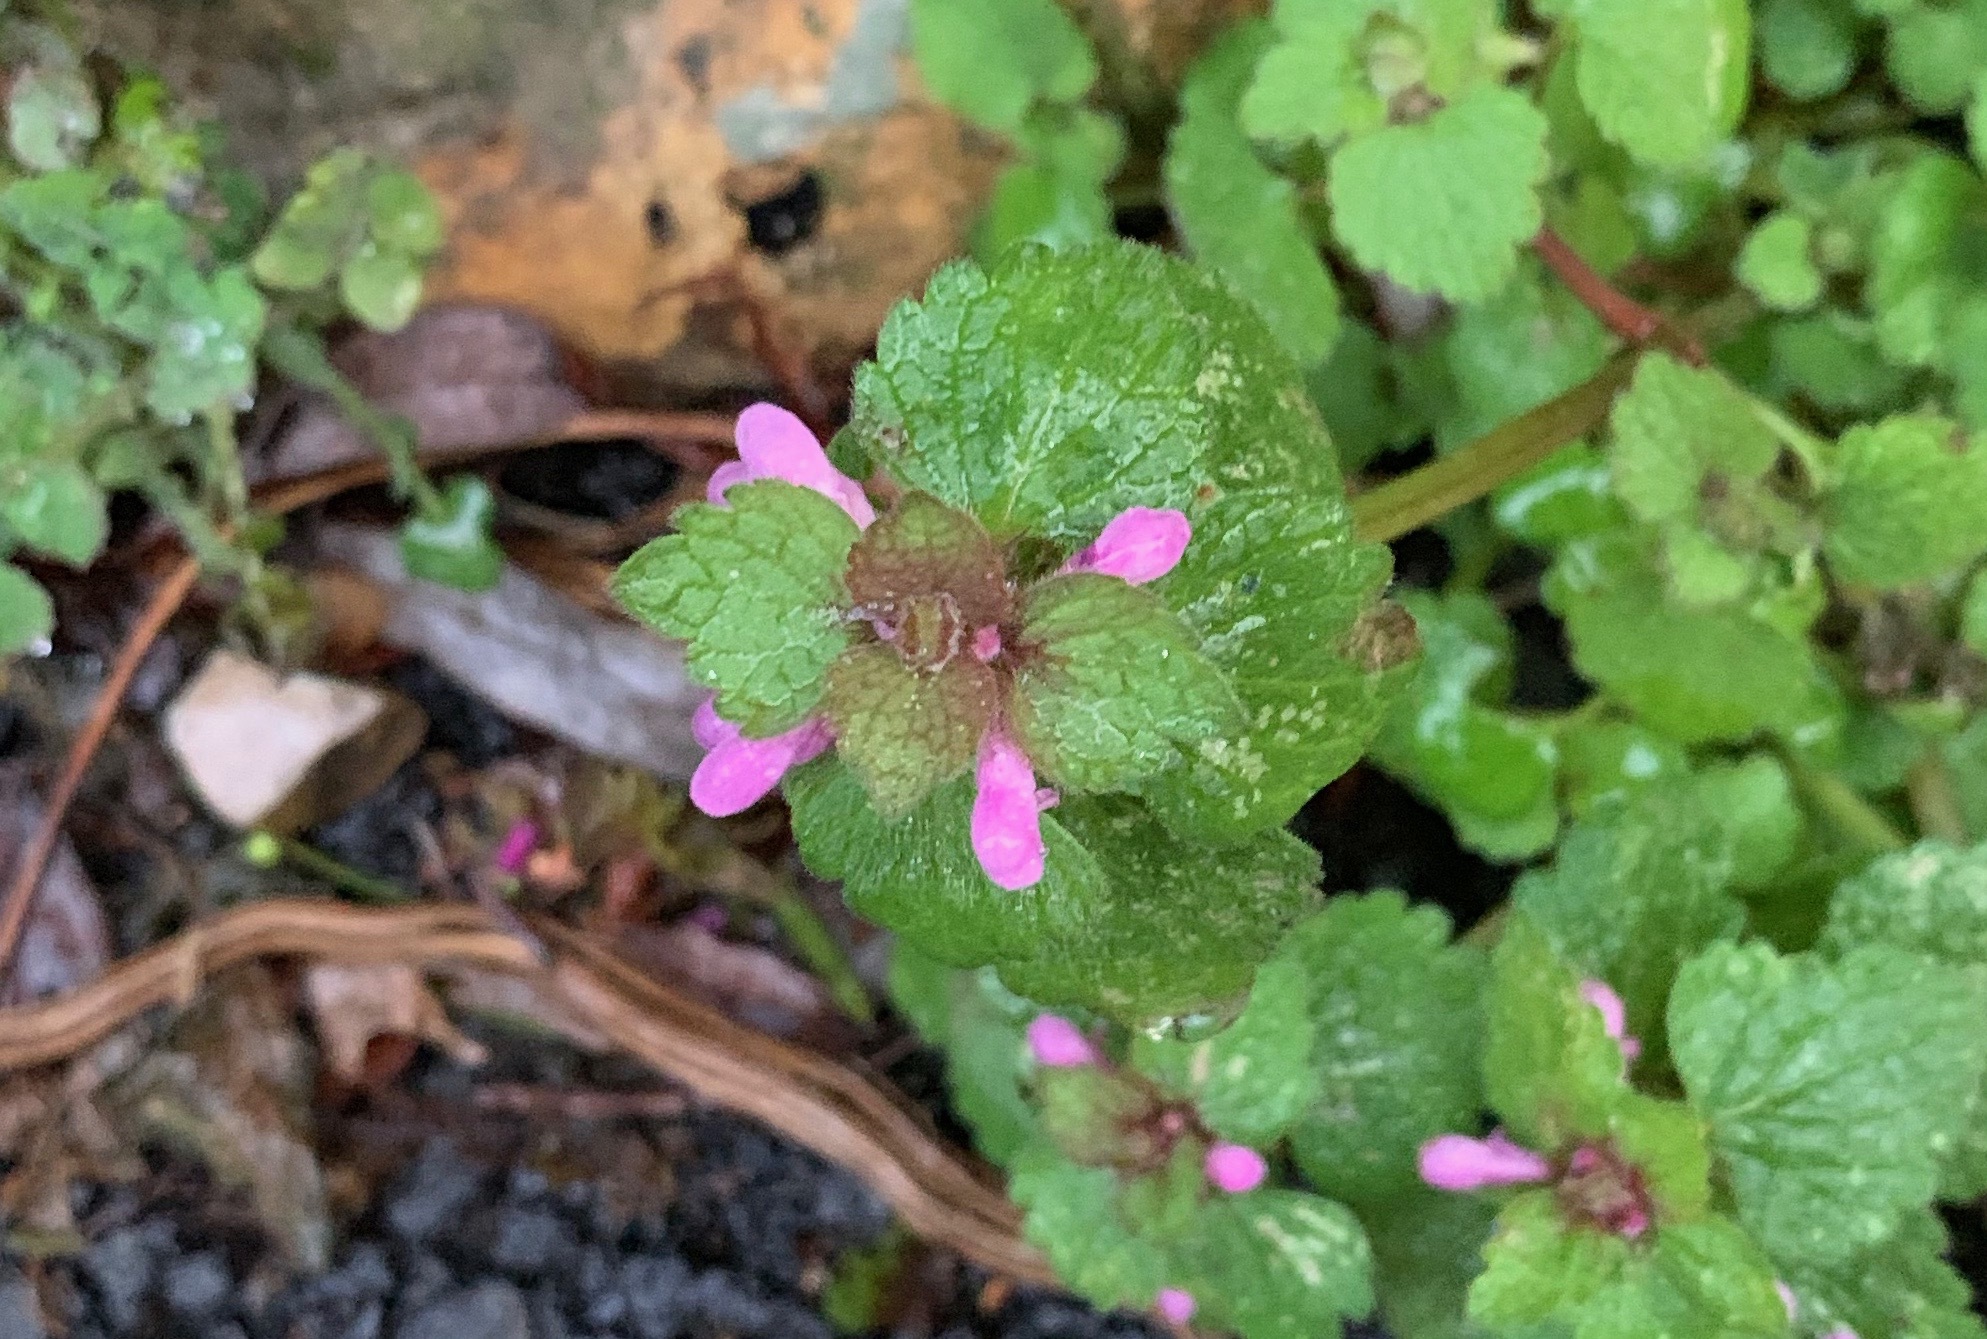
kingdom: Plantae
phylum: Tracheophyta
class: Magnoliopsida
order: Lamiales
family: Lamiaceae
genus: Lamium
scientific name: Lamium purpureum
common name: Red dead-nettle
